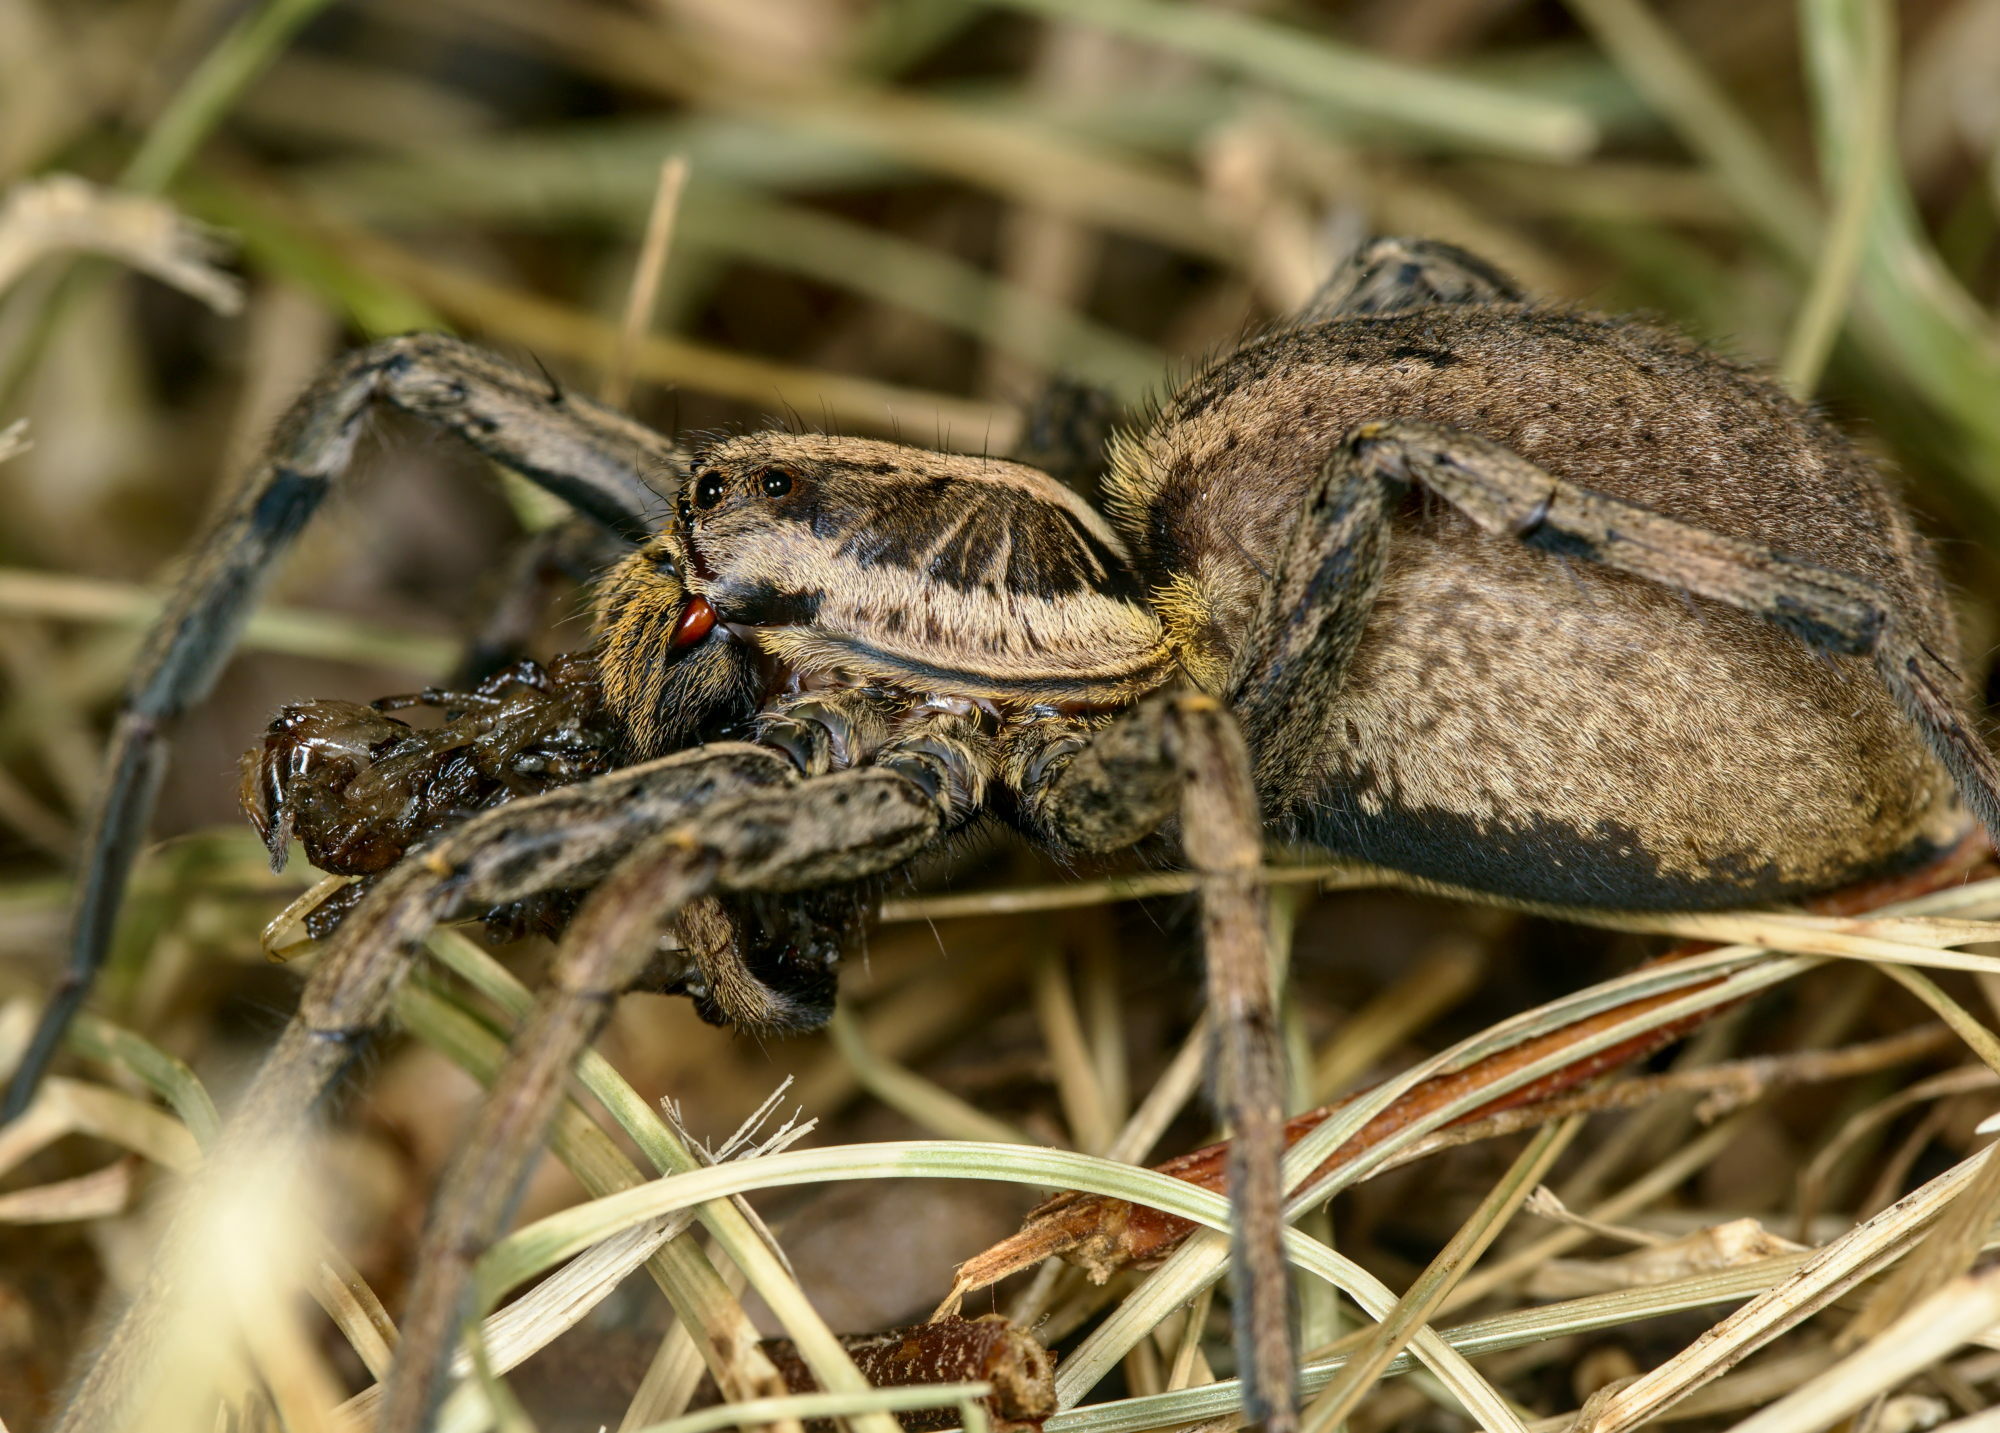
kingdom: Animalia
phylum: Arthropoda
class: Arachnida
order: Araneae
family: Lycosidae
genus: Hogna
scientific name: Hogna radiata
